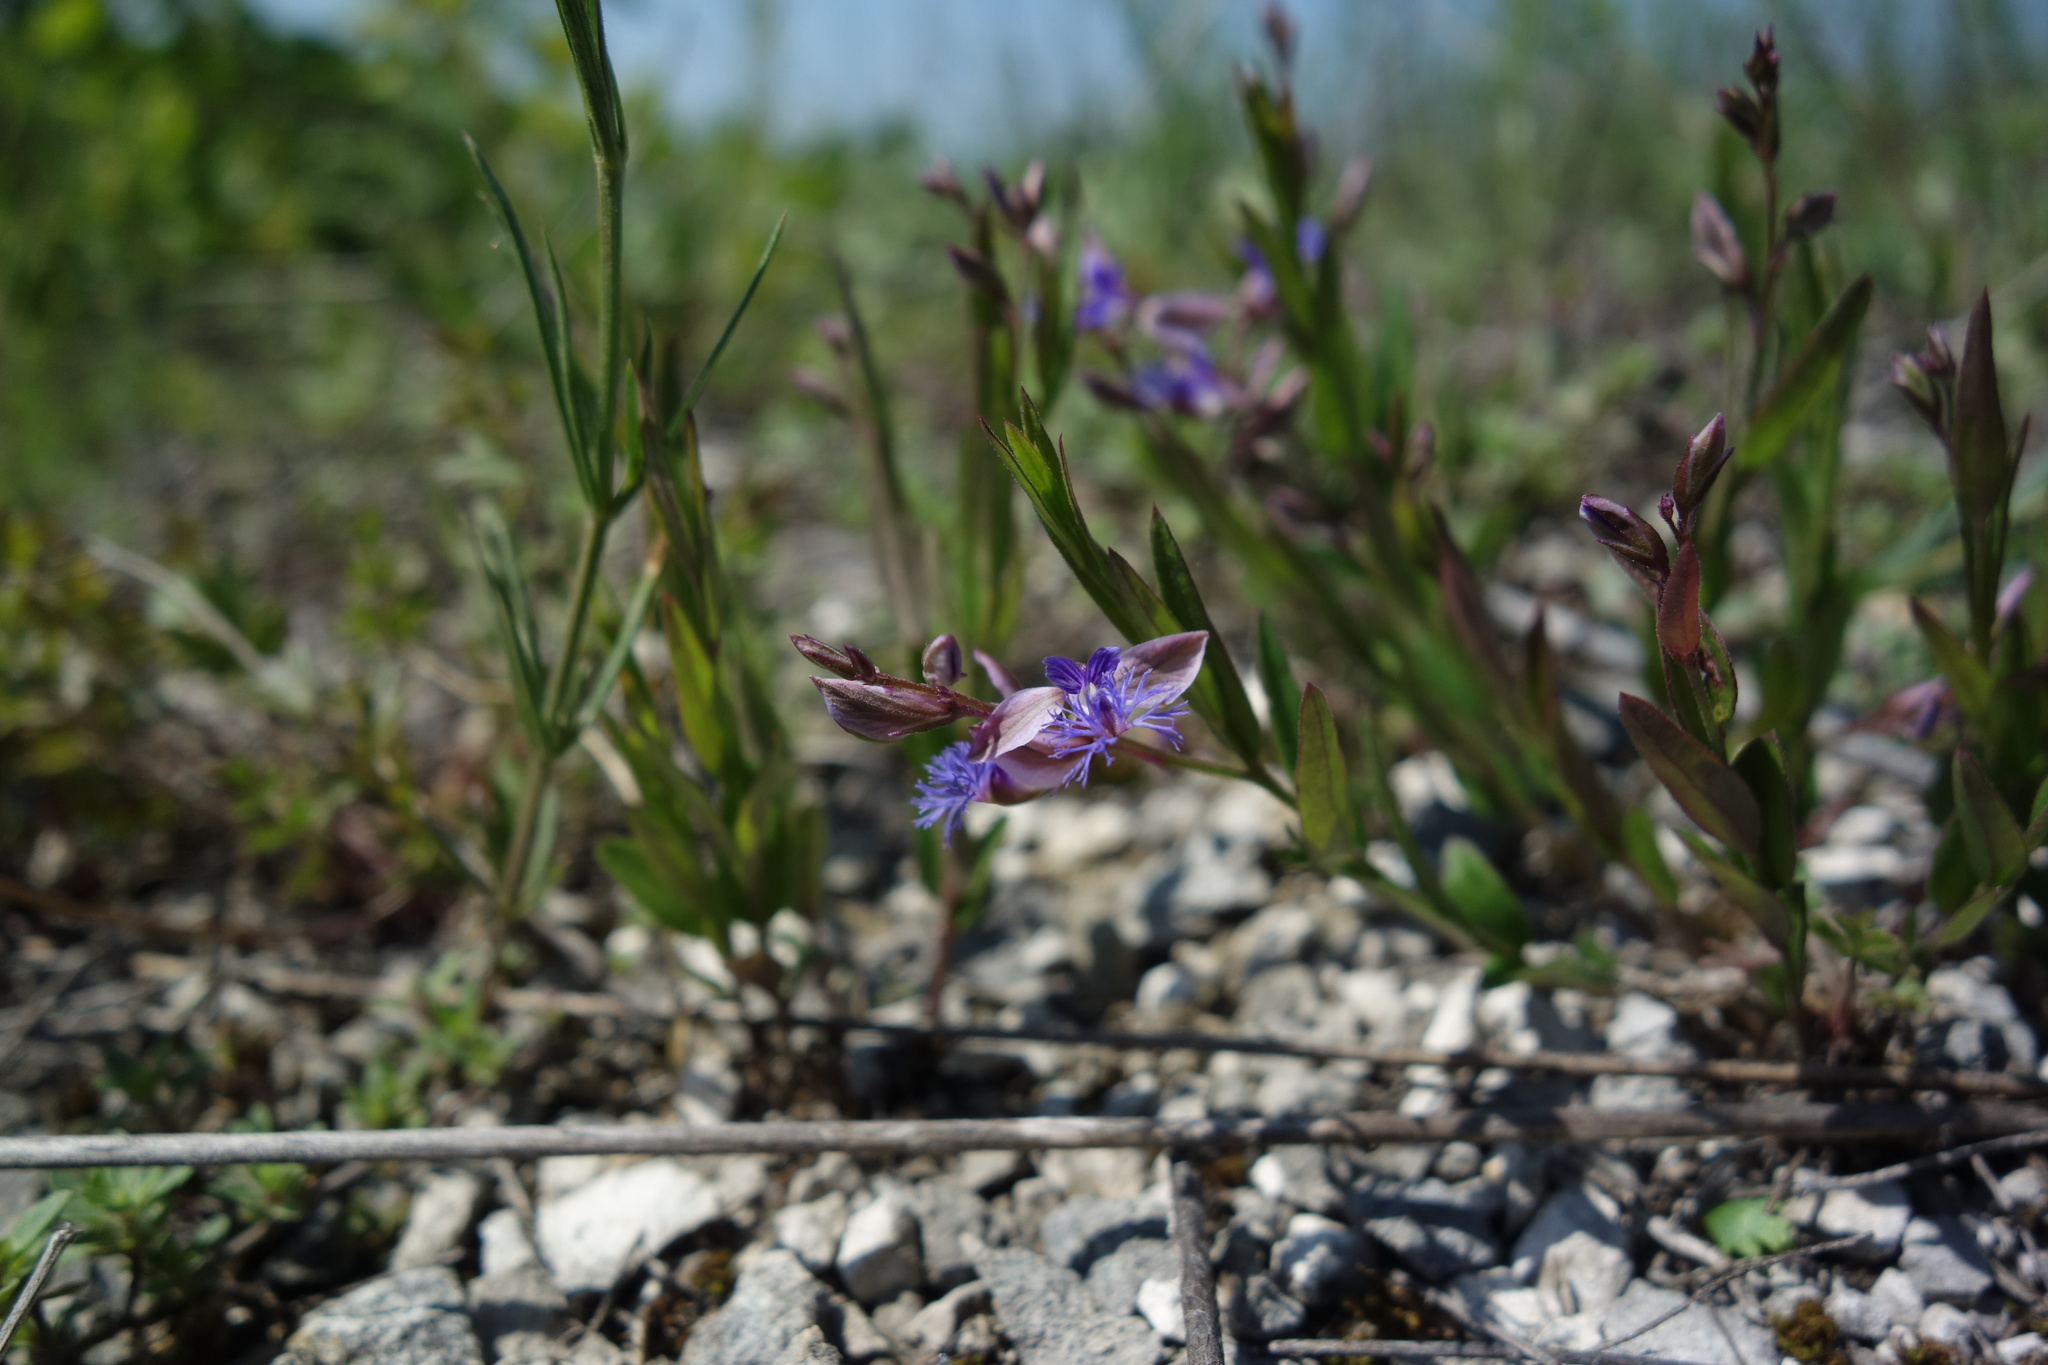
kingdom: Plantae
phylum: Tracheophyta
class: Magnoliopsida
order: Fabales
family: Polygalaceae
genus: Polygala
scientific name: Polygala sibirica
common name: Siberian polygala
